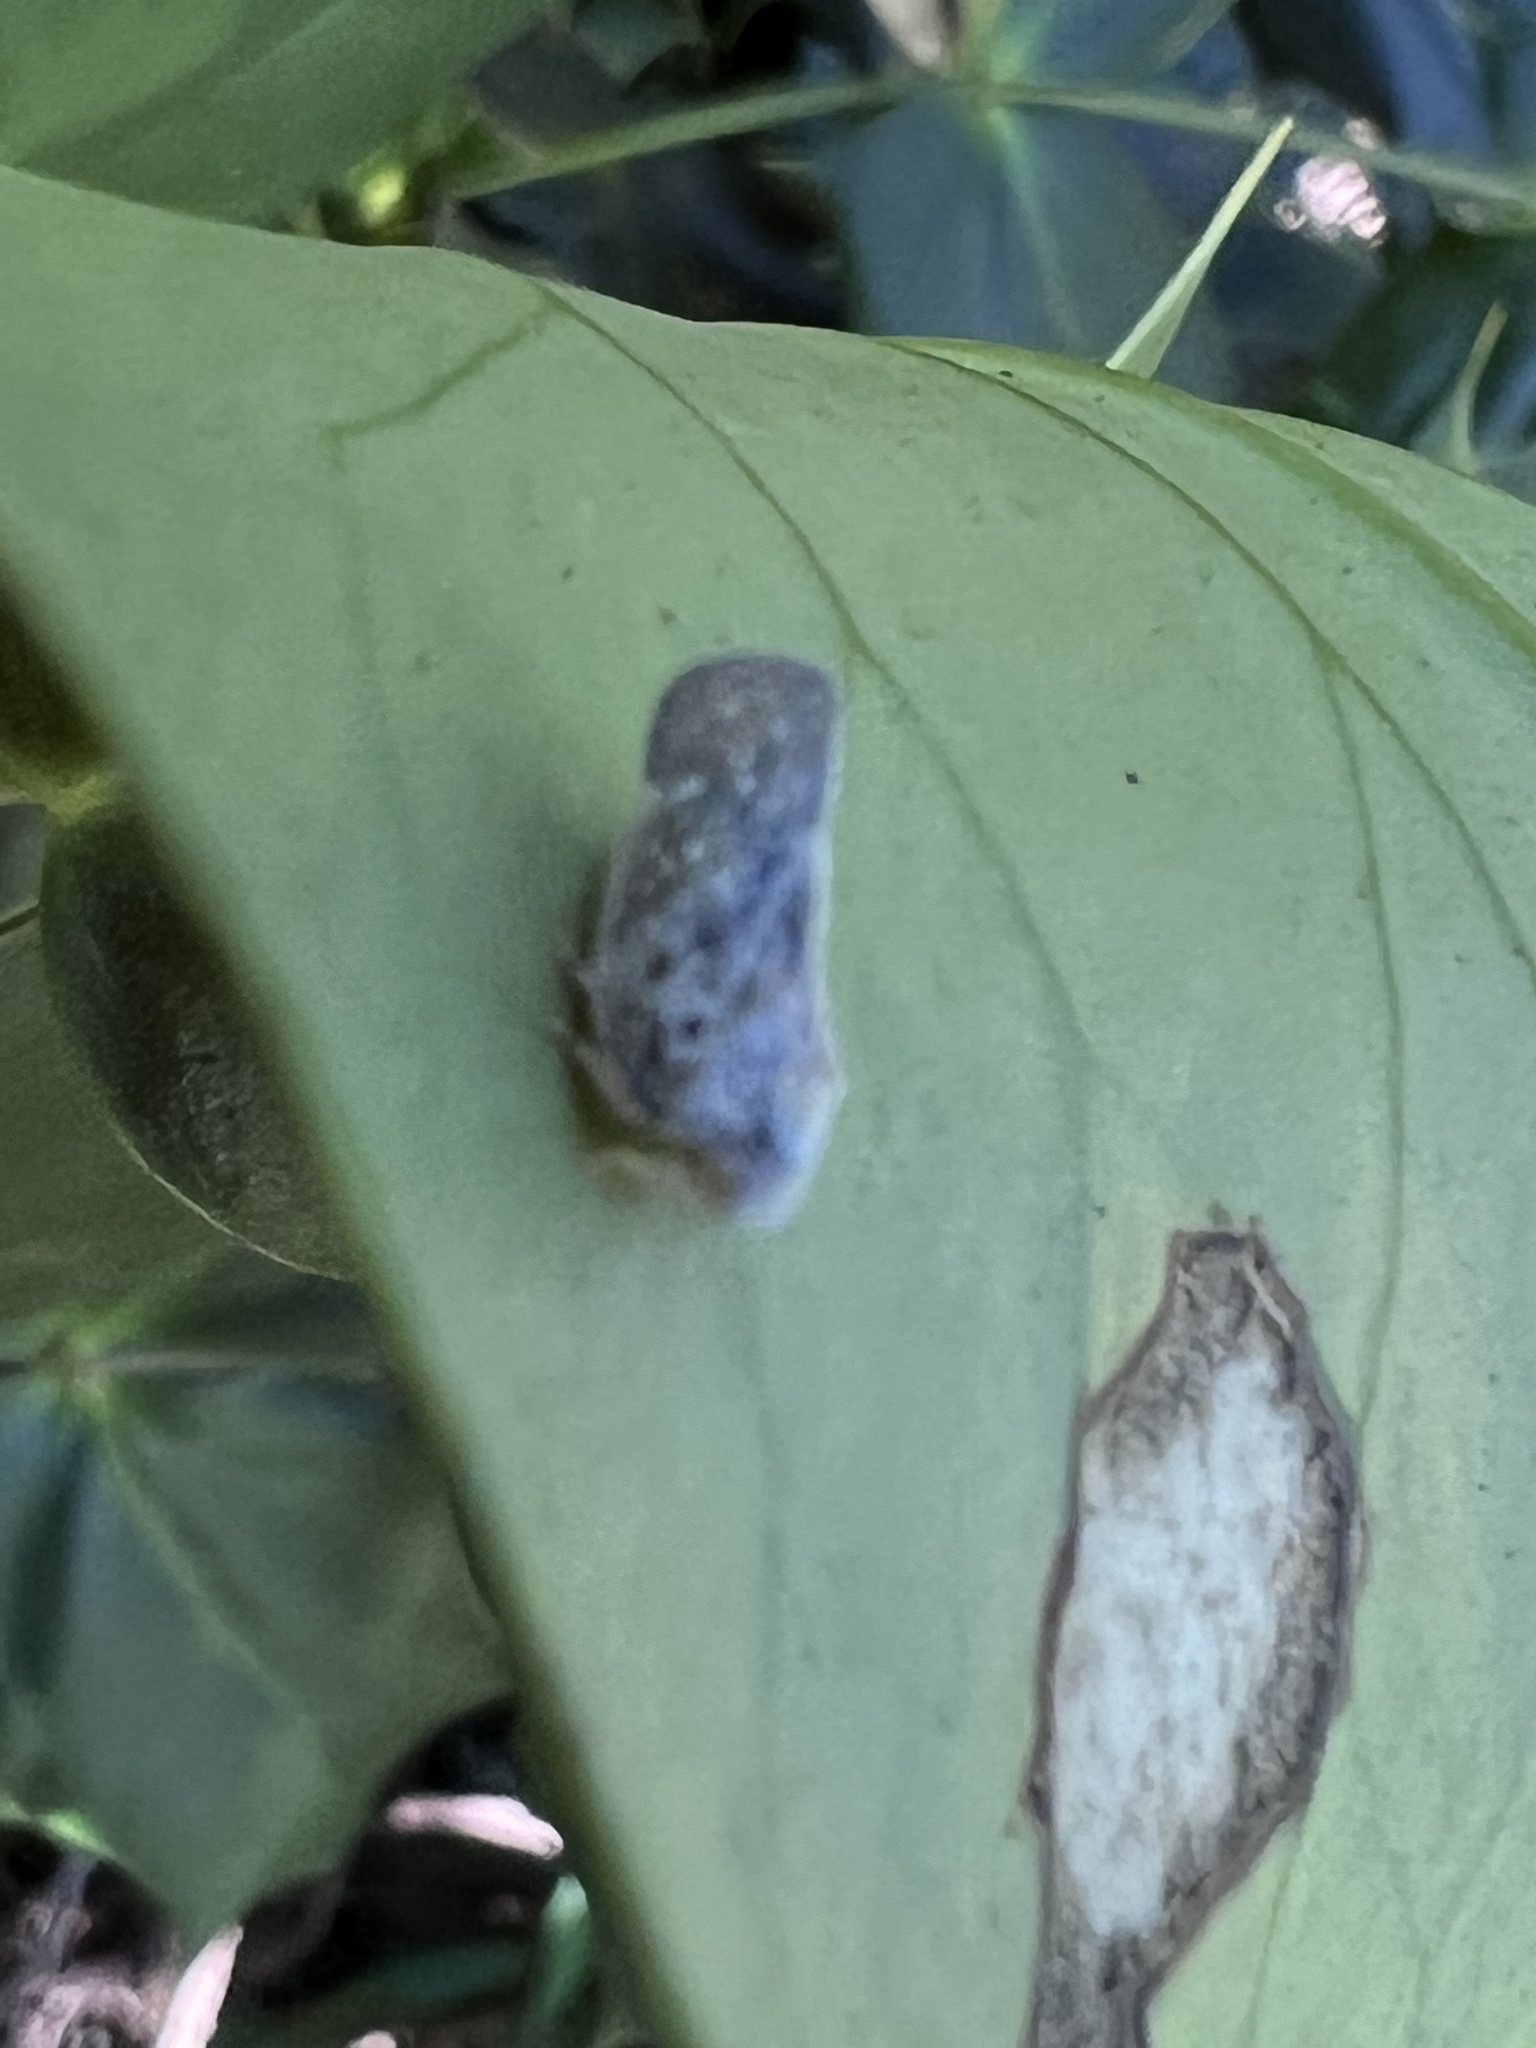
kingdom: Animalia
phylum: Arthropoda
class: Insecta
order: Hemiptera
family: Flatidae
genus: Metcalfa
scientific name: Metcalfa pruinosa
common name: Citrus flatid planthopper
